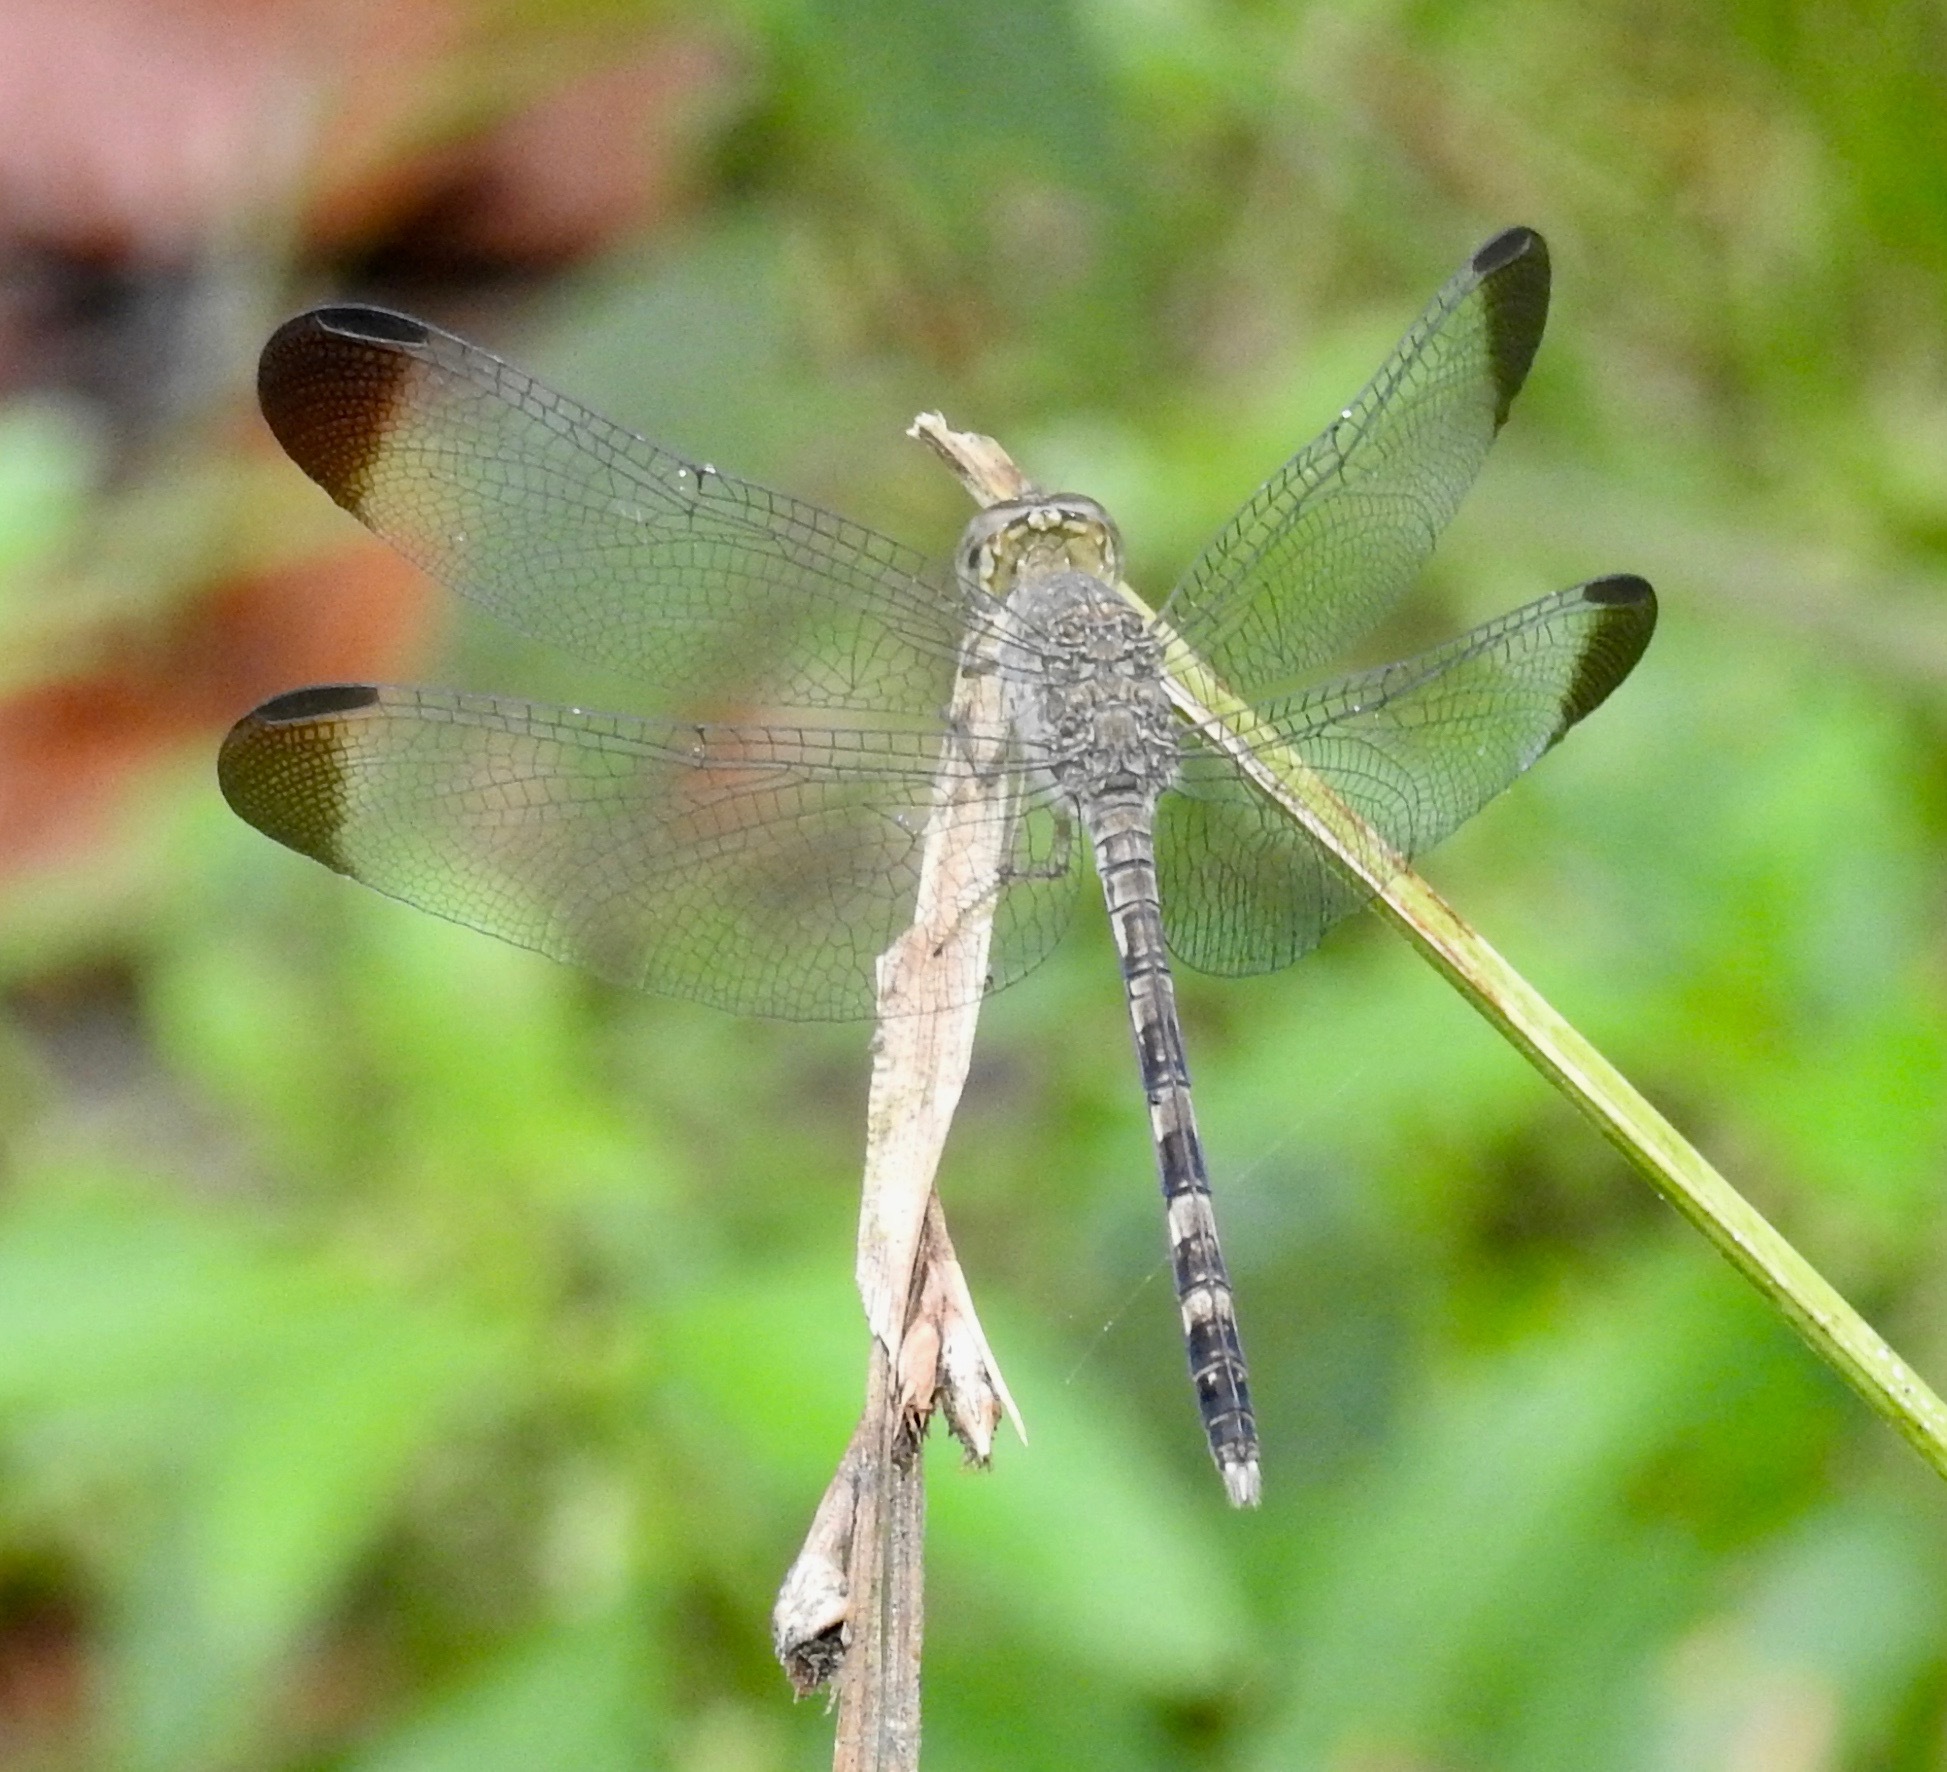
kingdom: Animalia
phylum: Arthropoda
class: Insecta
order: Odonata
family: Libellulidae
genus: Uracis
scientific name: Uracis imbuta
